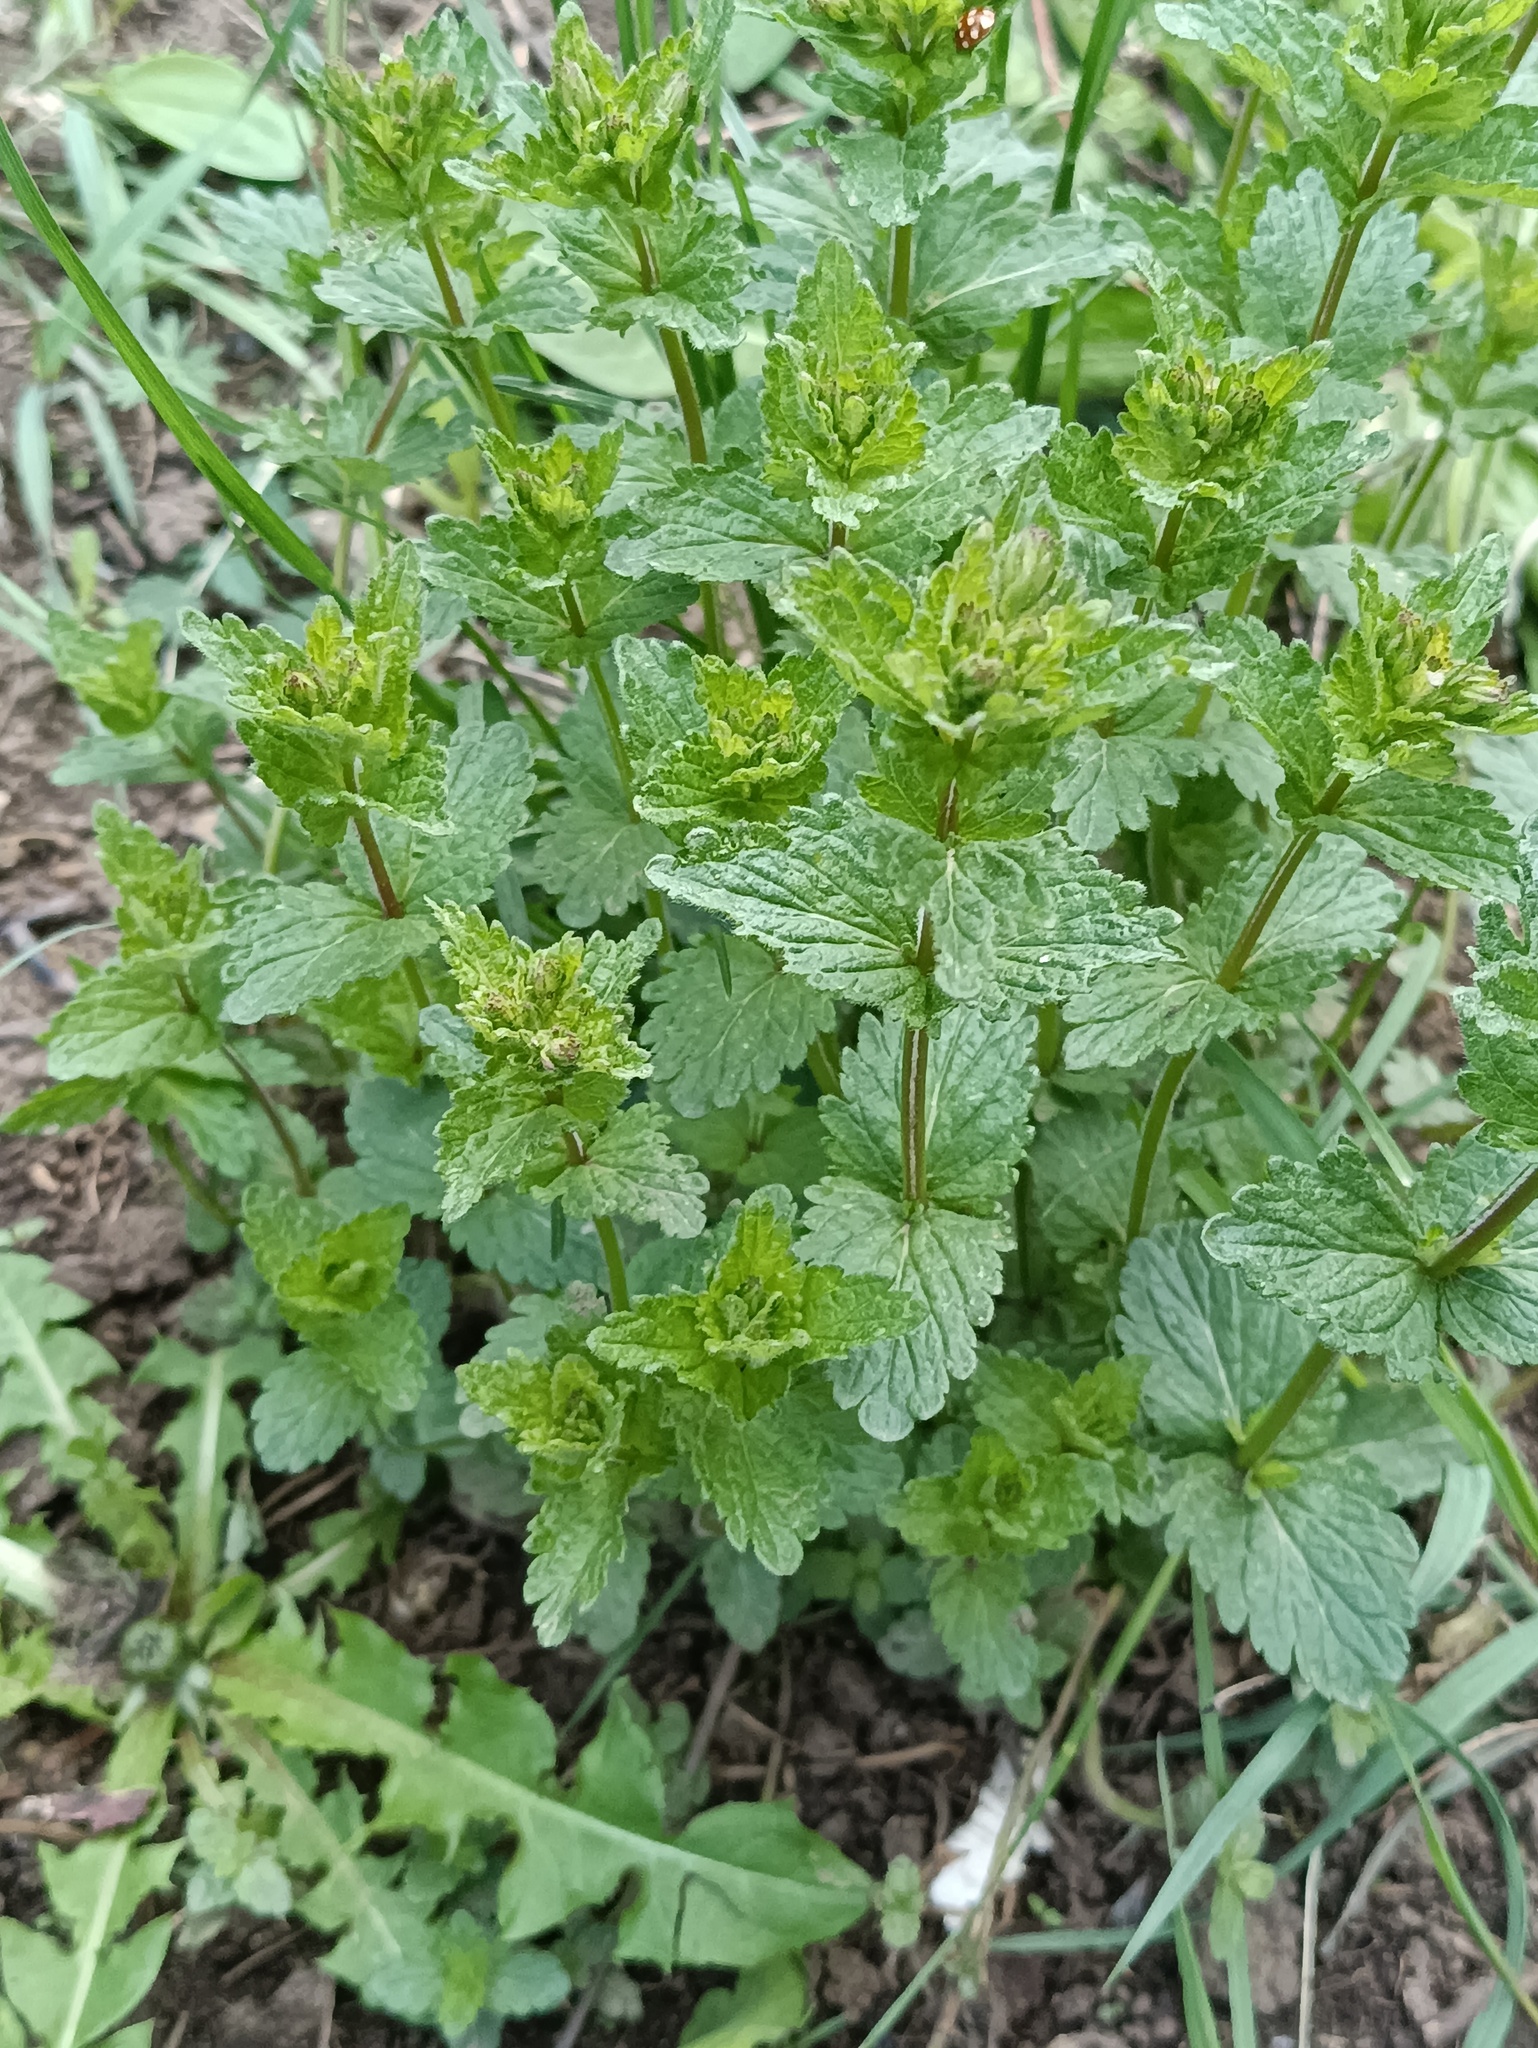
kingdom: Plantae
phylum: Tracheophyta
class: Magnoliopsida
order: Lamiales
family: Plantaginaceae
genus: Veronica
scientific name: Veronica chamaedrys
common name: Germander speedwell
